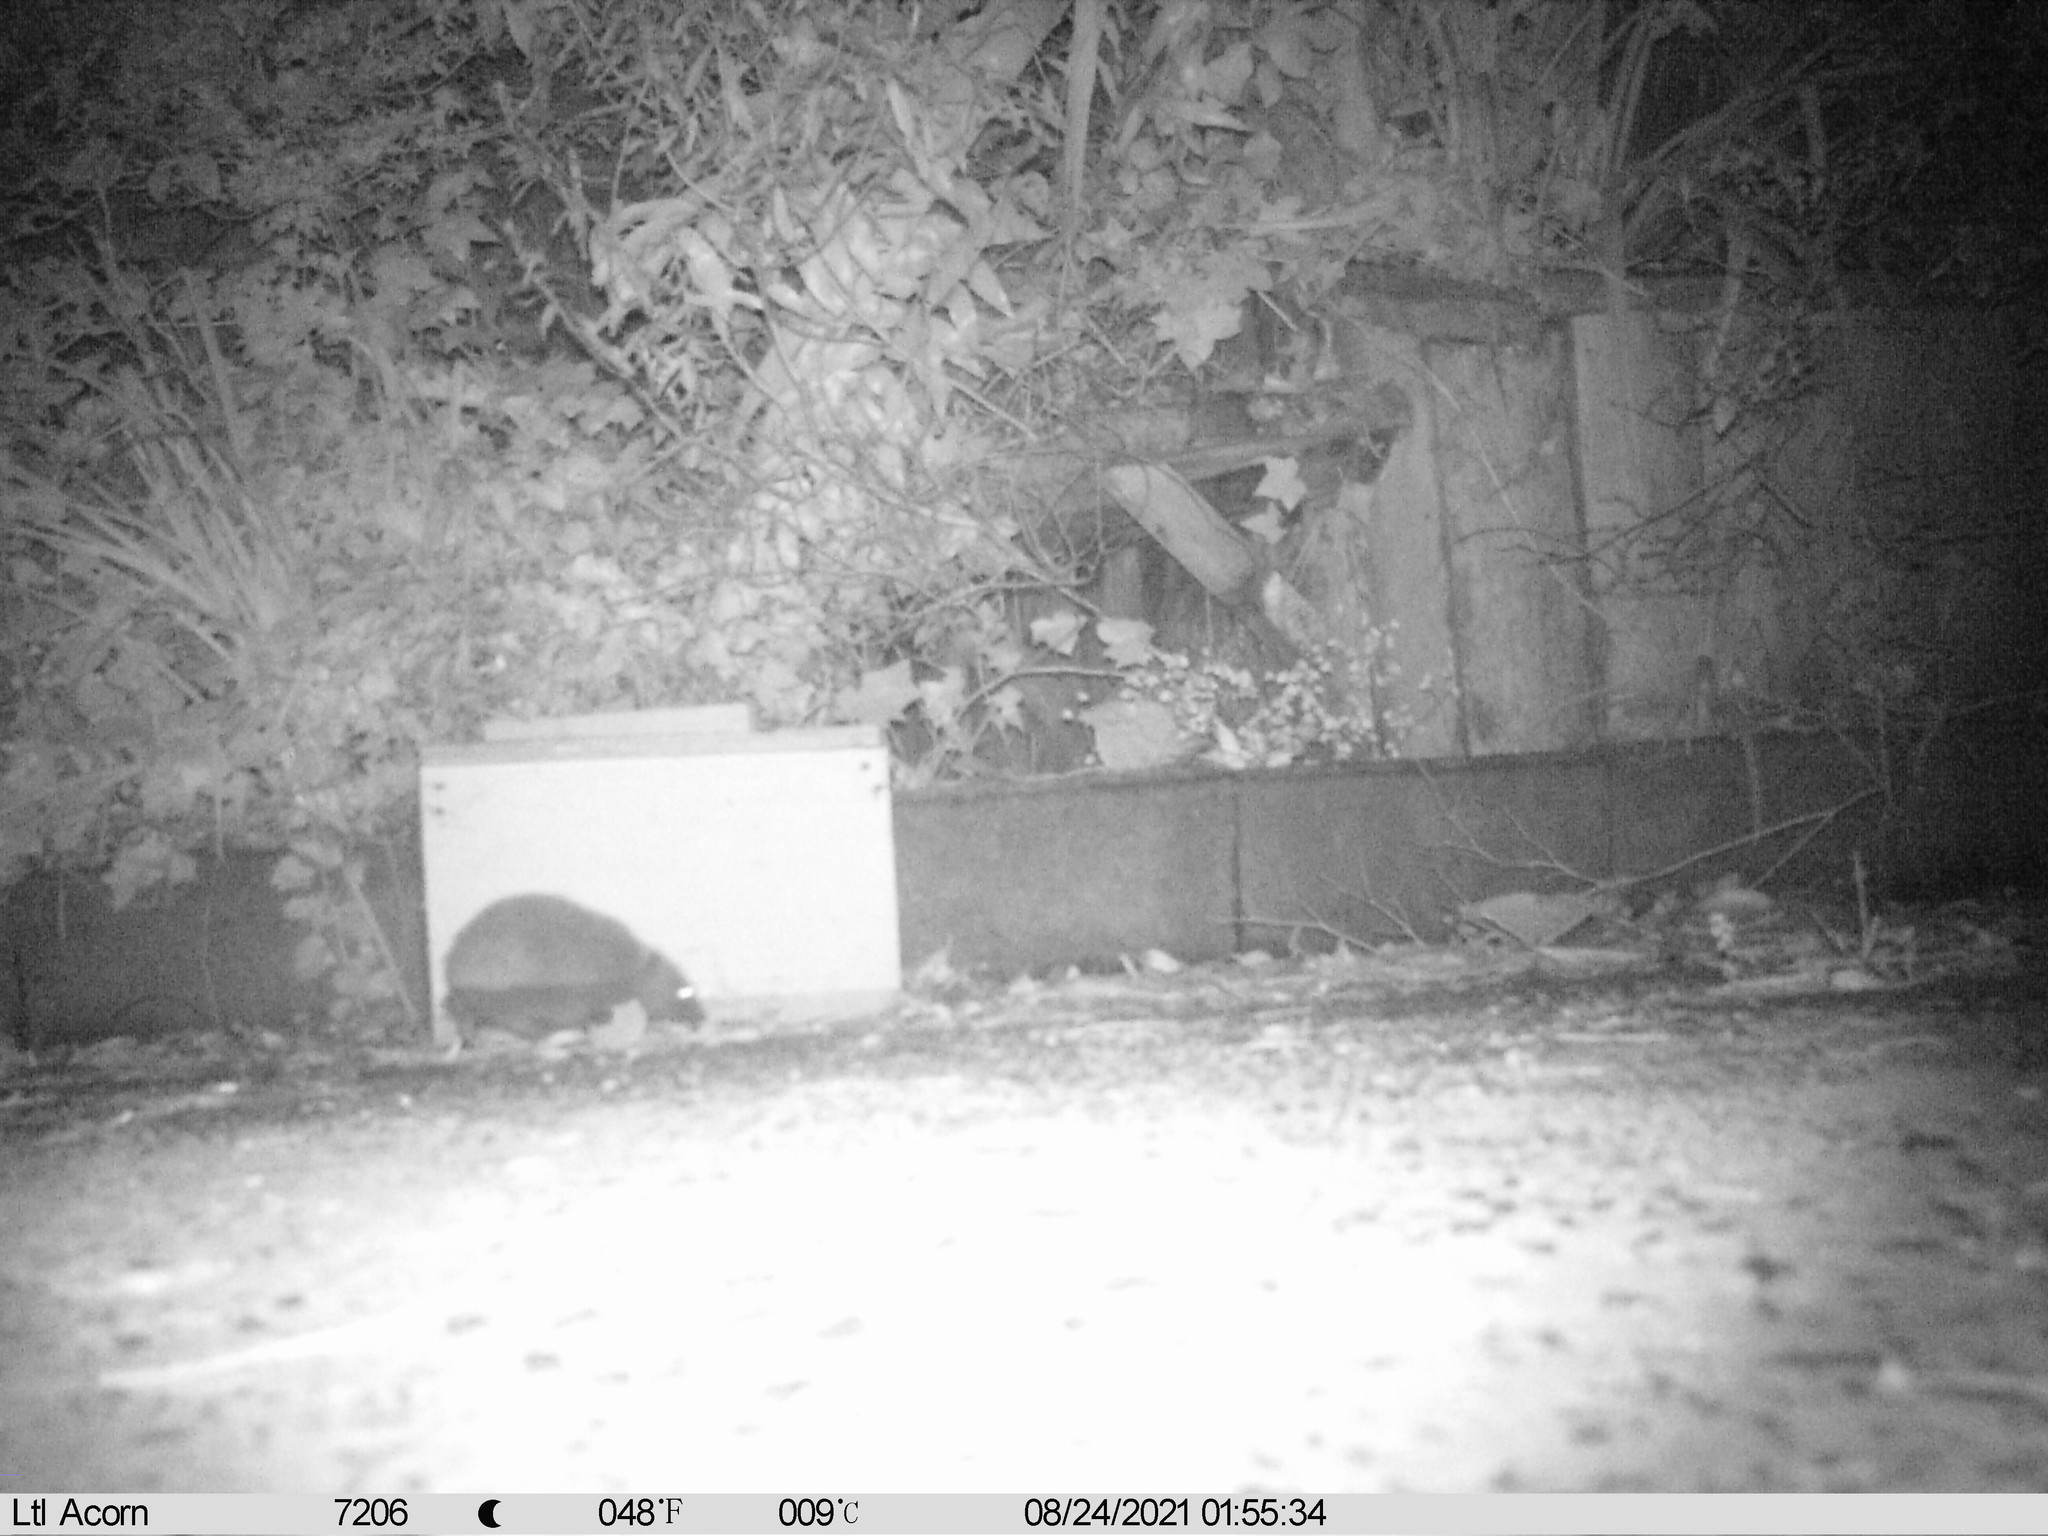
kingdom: Animalia
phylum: Chordata
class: Mammalia
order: Erinaceomorpha
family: Erinaceidae
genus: Erinaceus
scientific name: Erinaceus europaeus
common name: West european hedgehog
